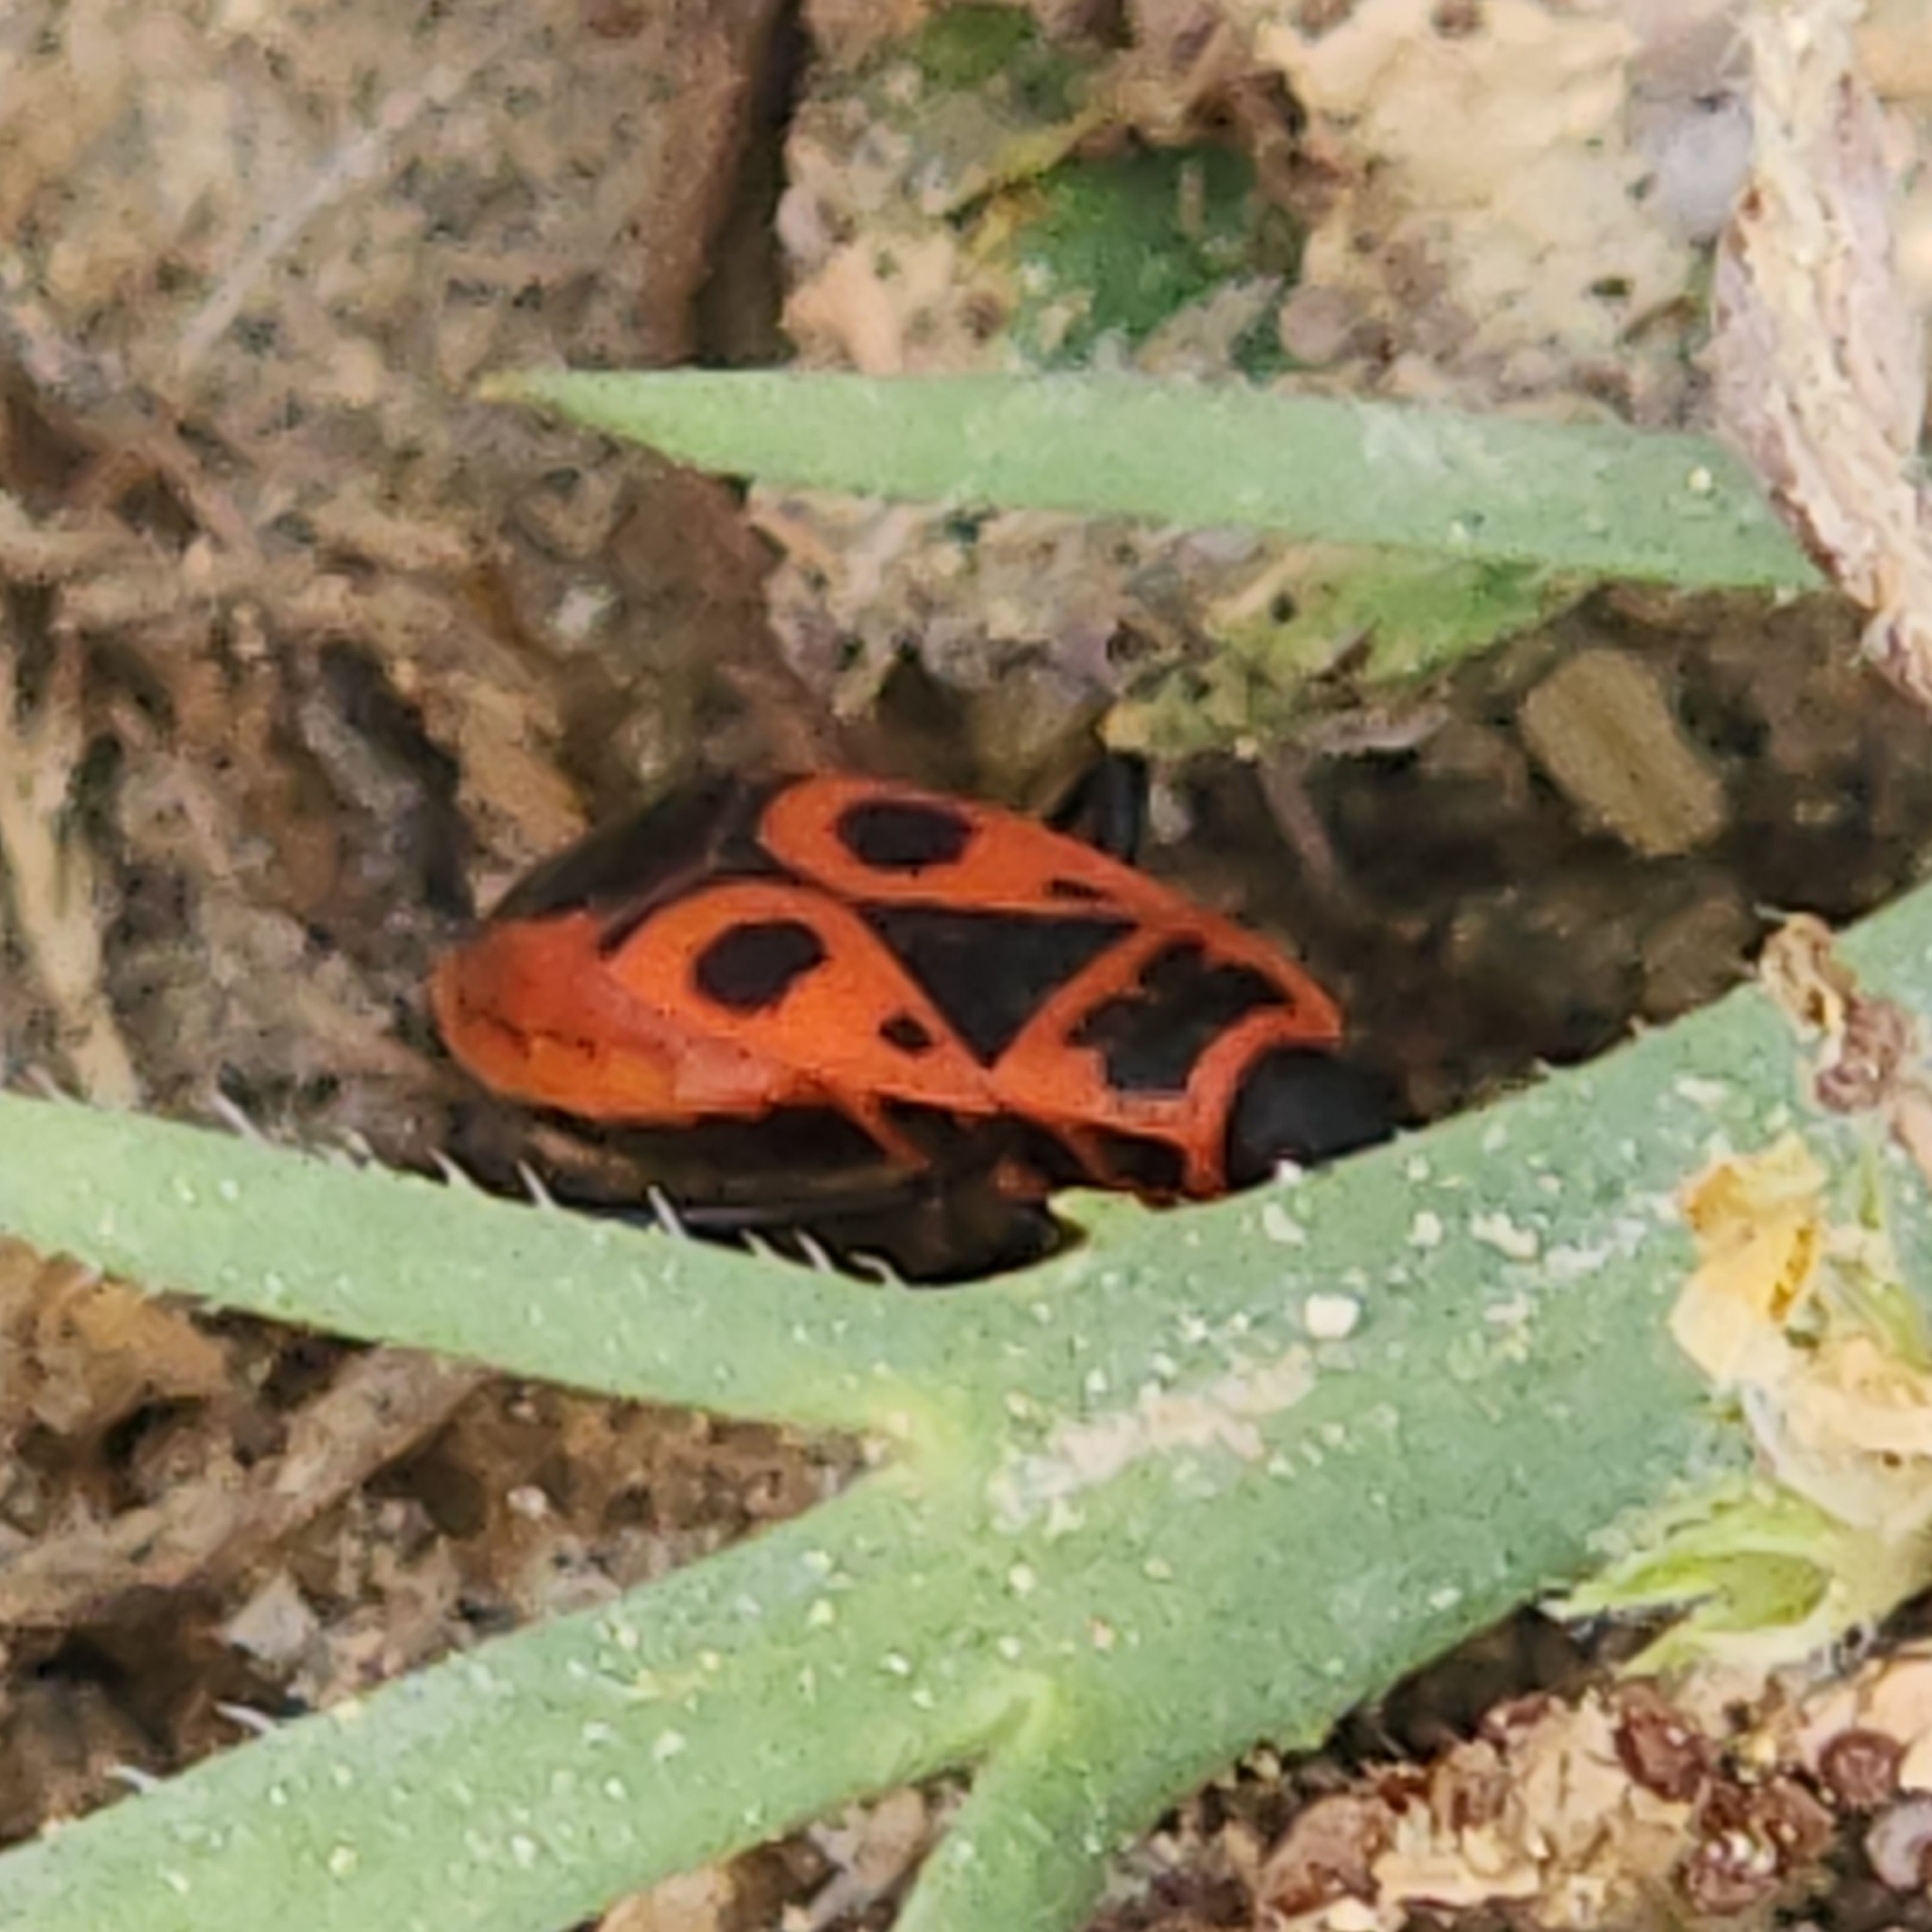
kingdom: Animalia
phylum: Arthropoda
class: Insecta
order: Hemiptera
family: Pyrrhocoridae
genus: Pyrrhocoris
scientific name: Pyrrhocoris apterus
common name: Firebug
